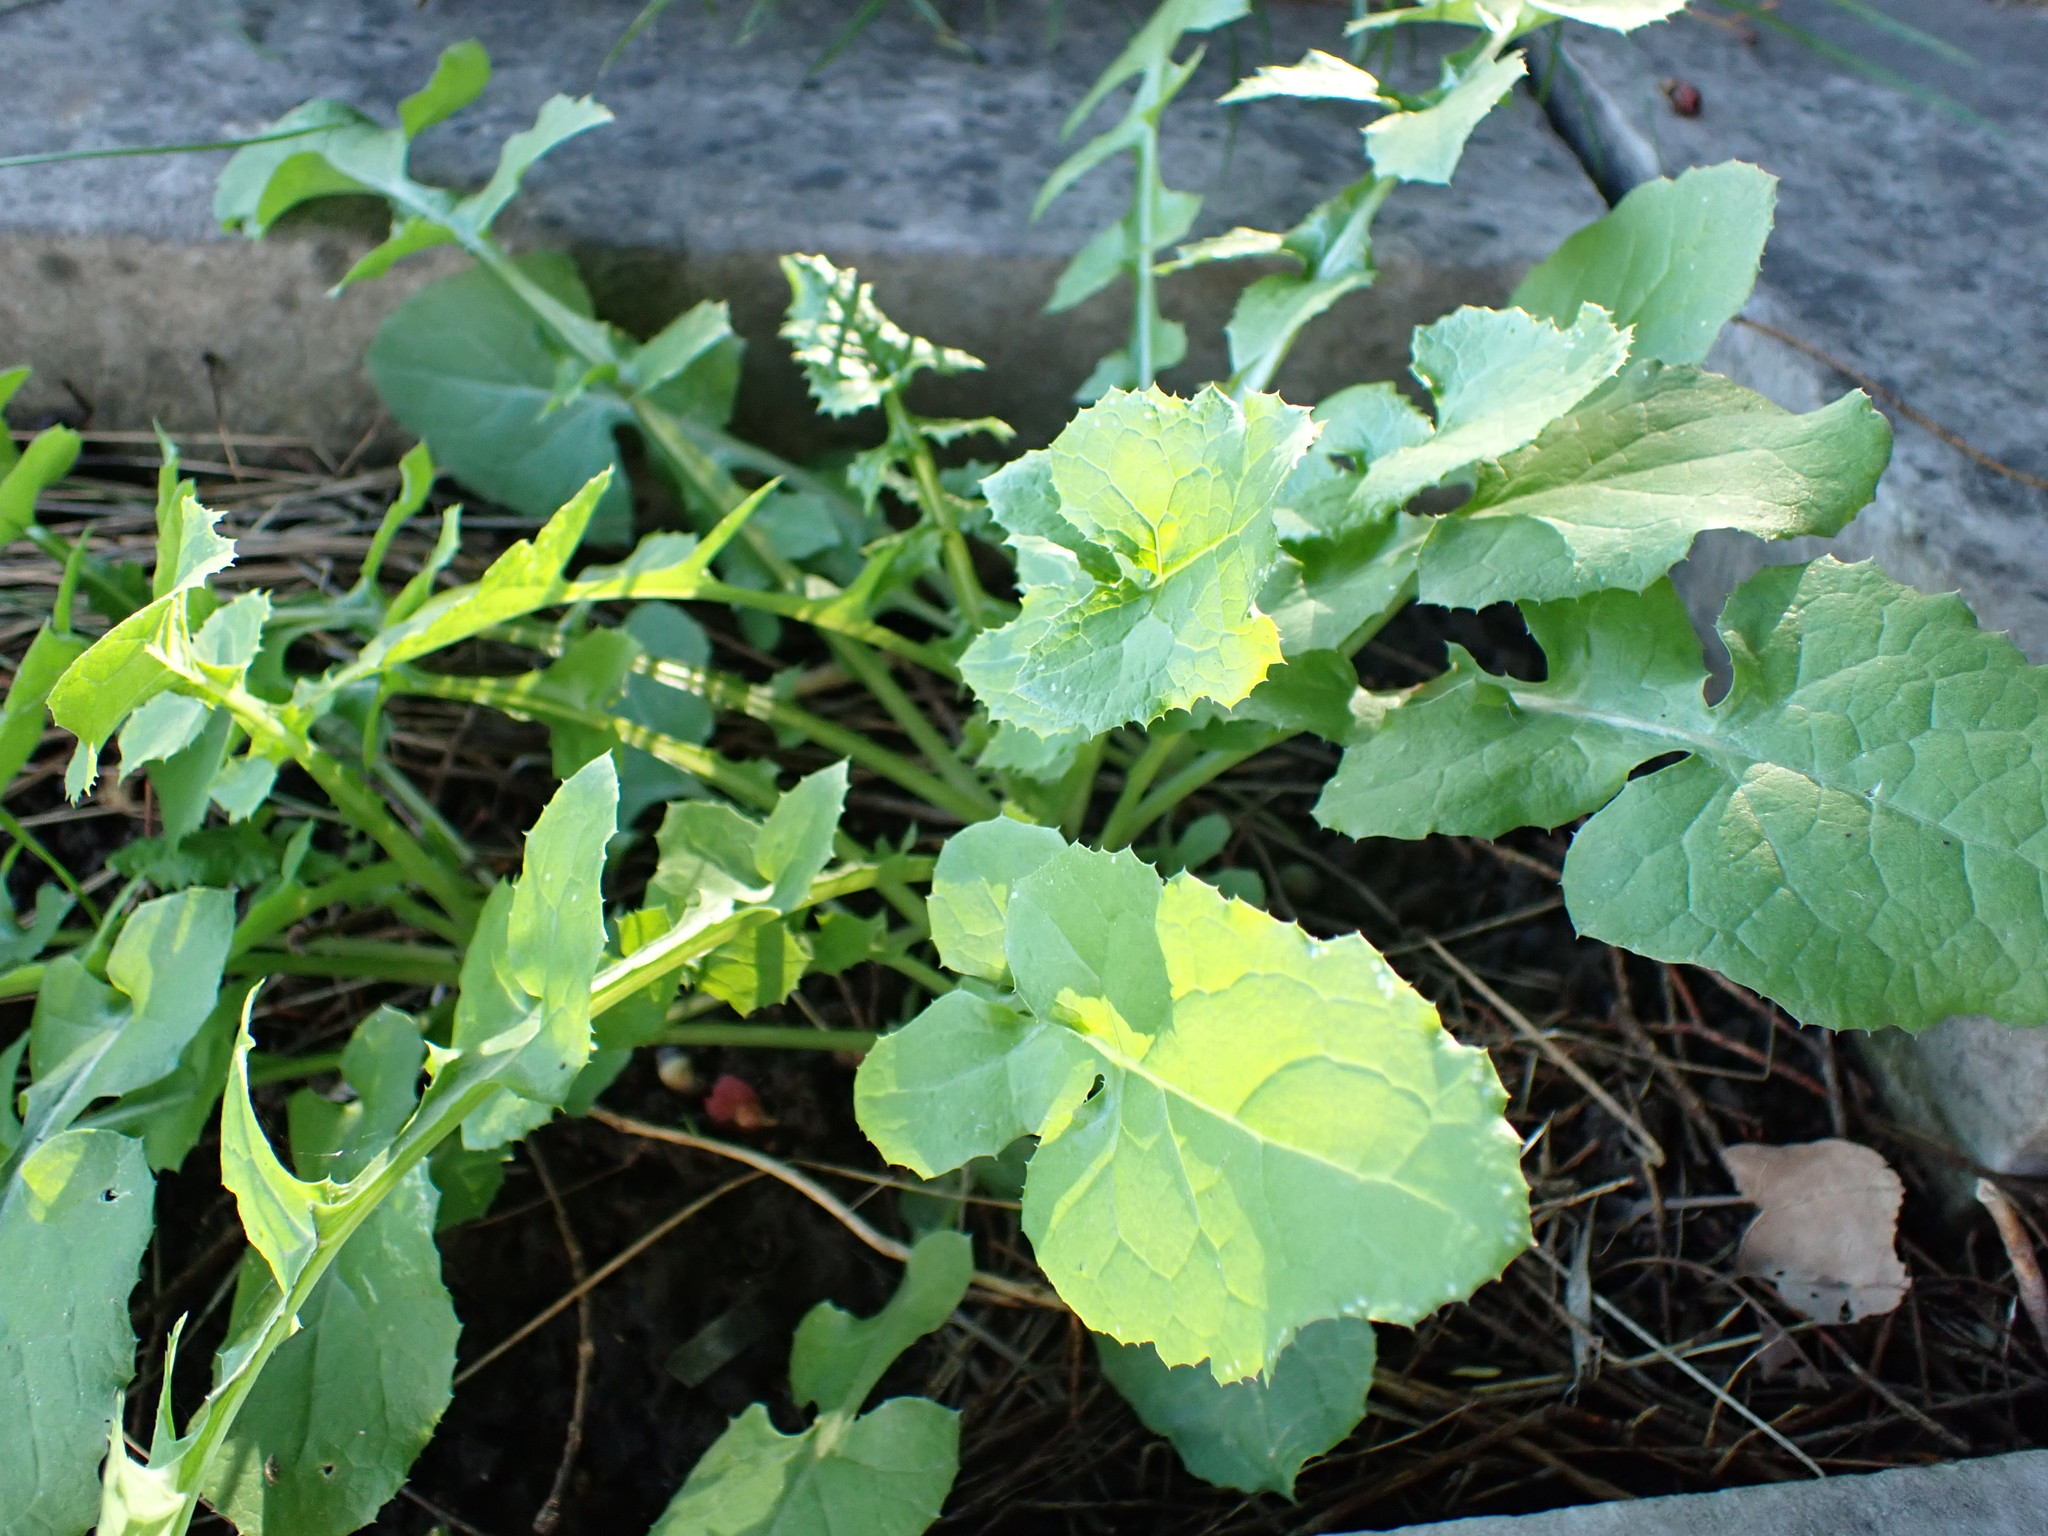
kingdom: Plantae
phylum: Tracheophyta
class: Magnoliopsida
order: Asterales
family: Asteraceae
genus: Sonchus
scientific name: Sonchus oleraceus
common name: Common sowthistle
